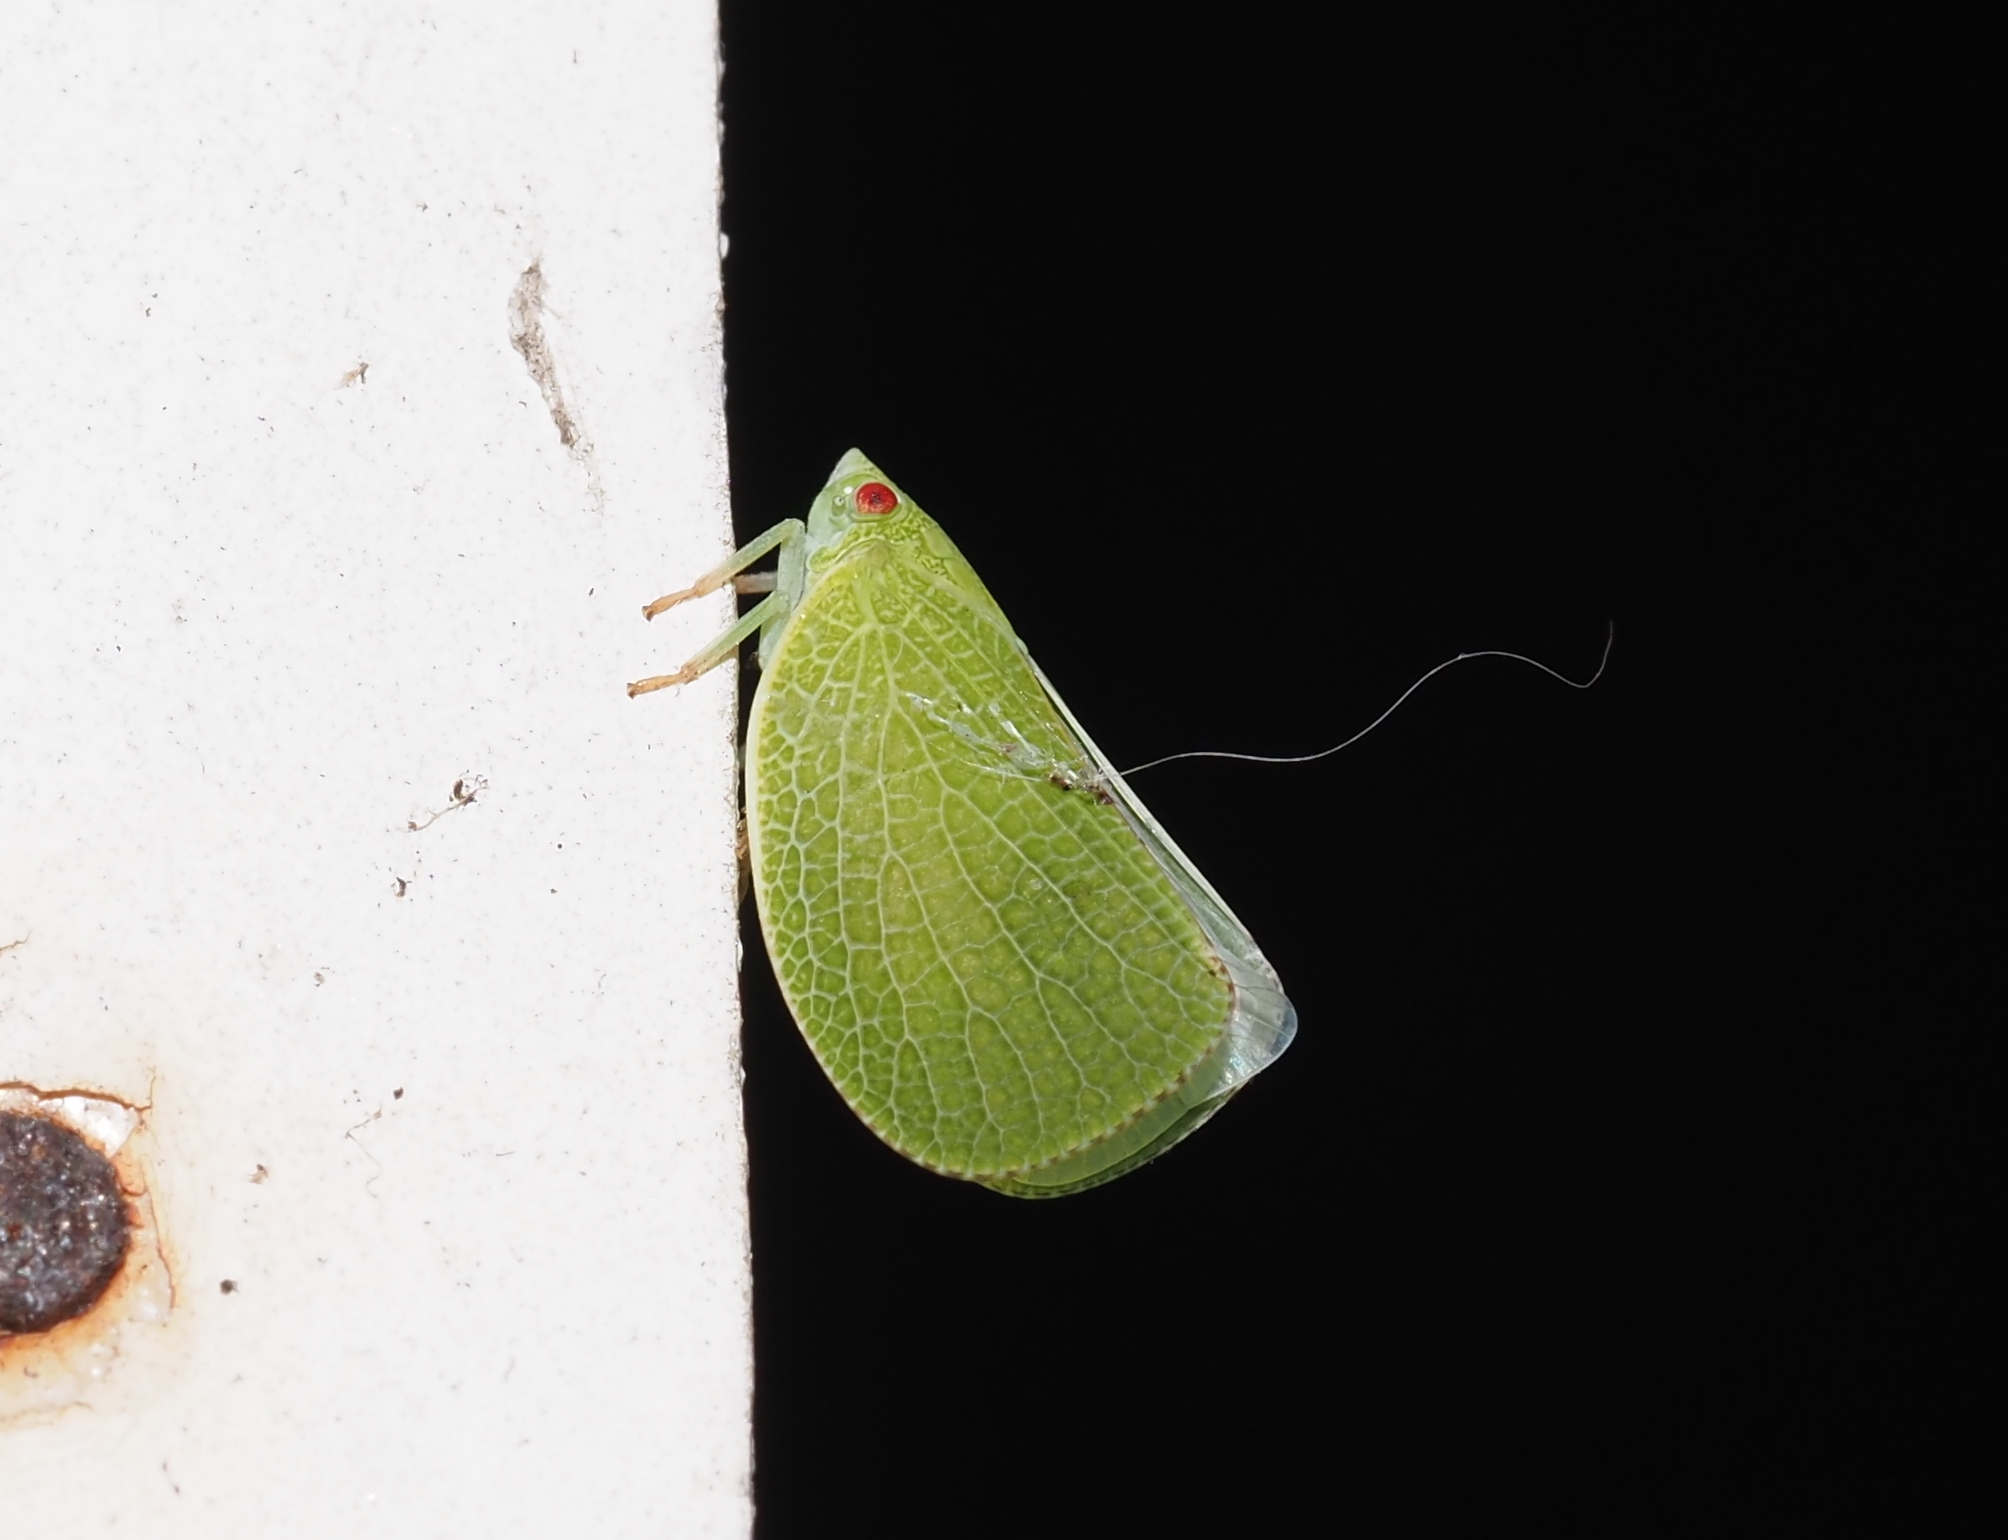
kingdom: Animalia
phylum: Arthropoda
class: Insecta
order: Hemiptera
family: Acanaloniidae
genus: Acanalonia
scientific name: Acanalonia conica
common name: Green cone-headed planthopper
